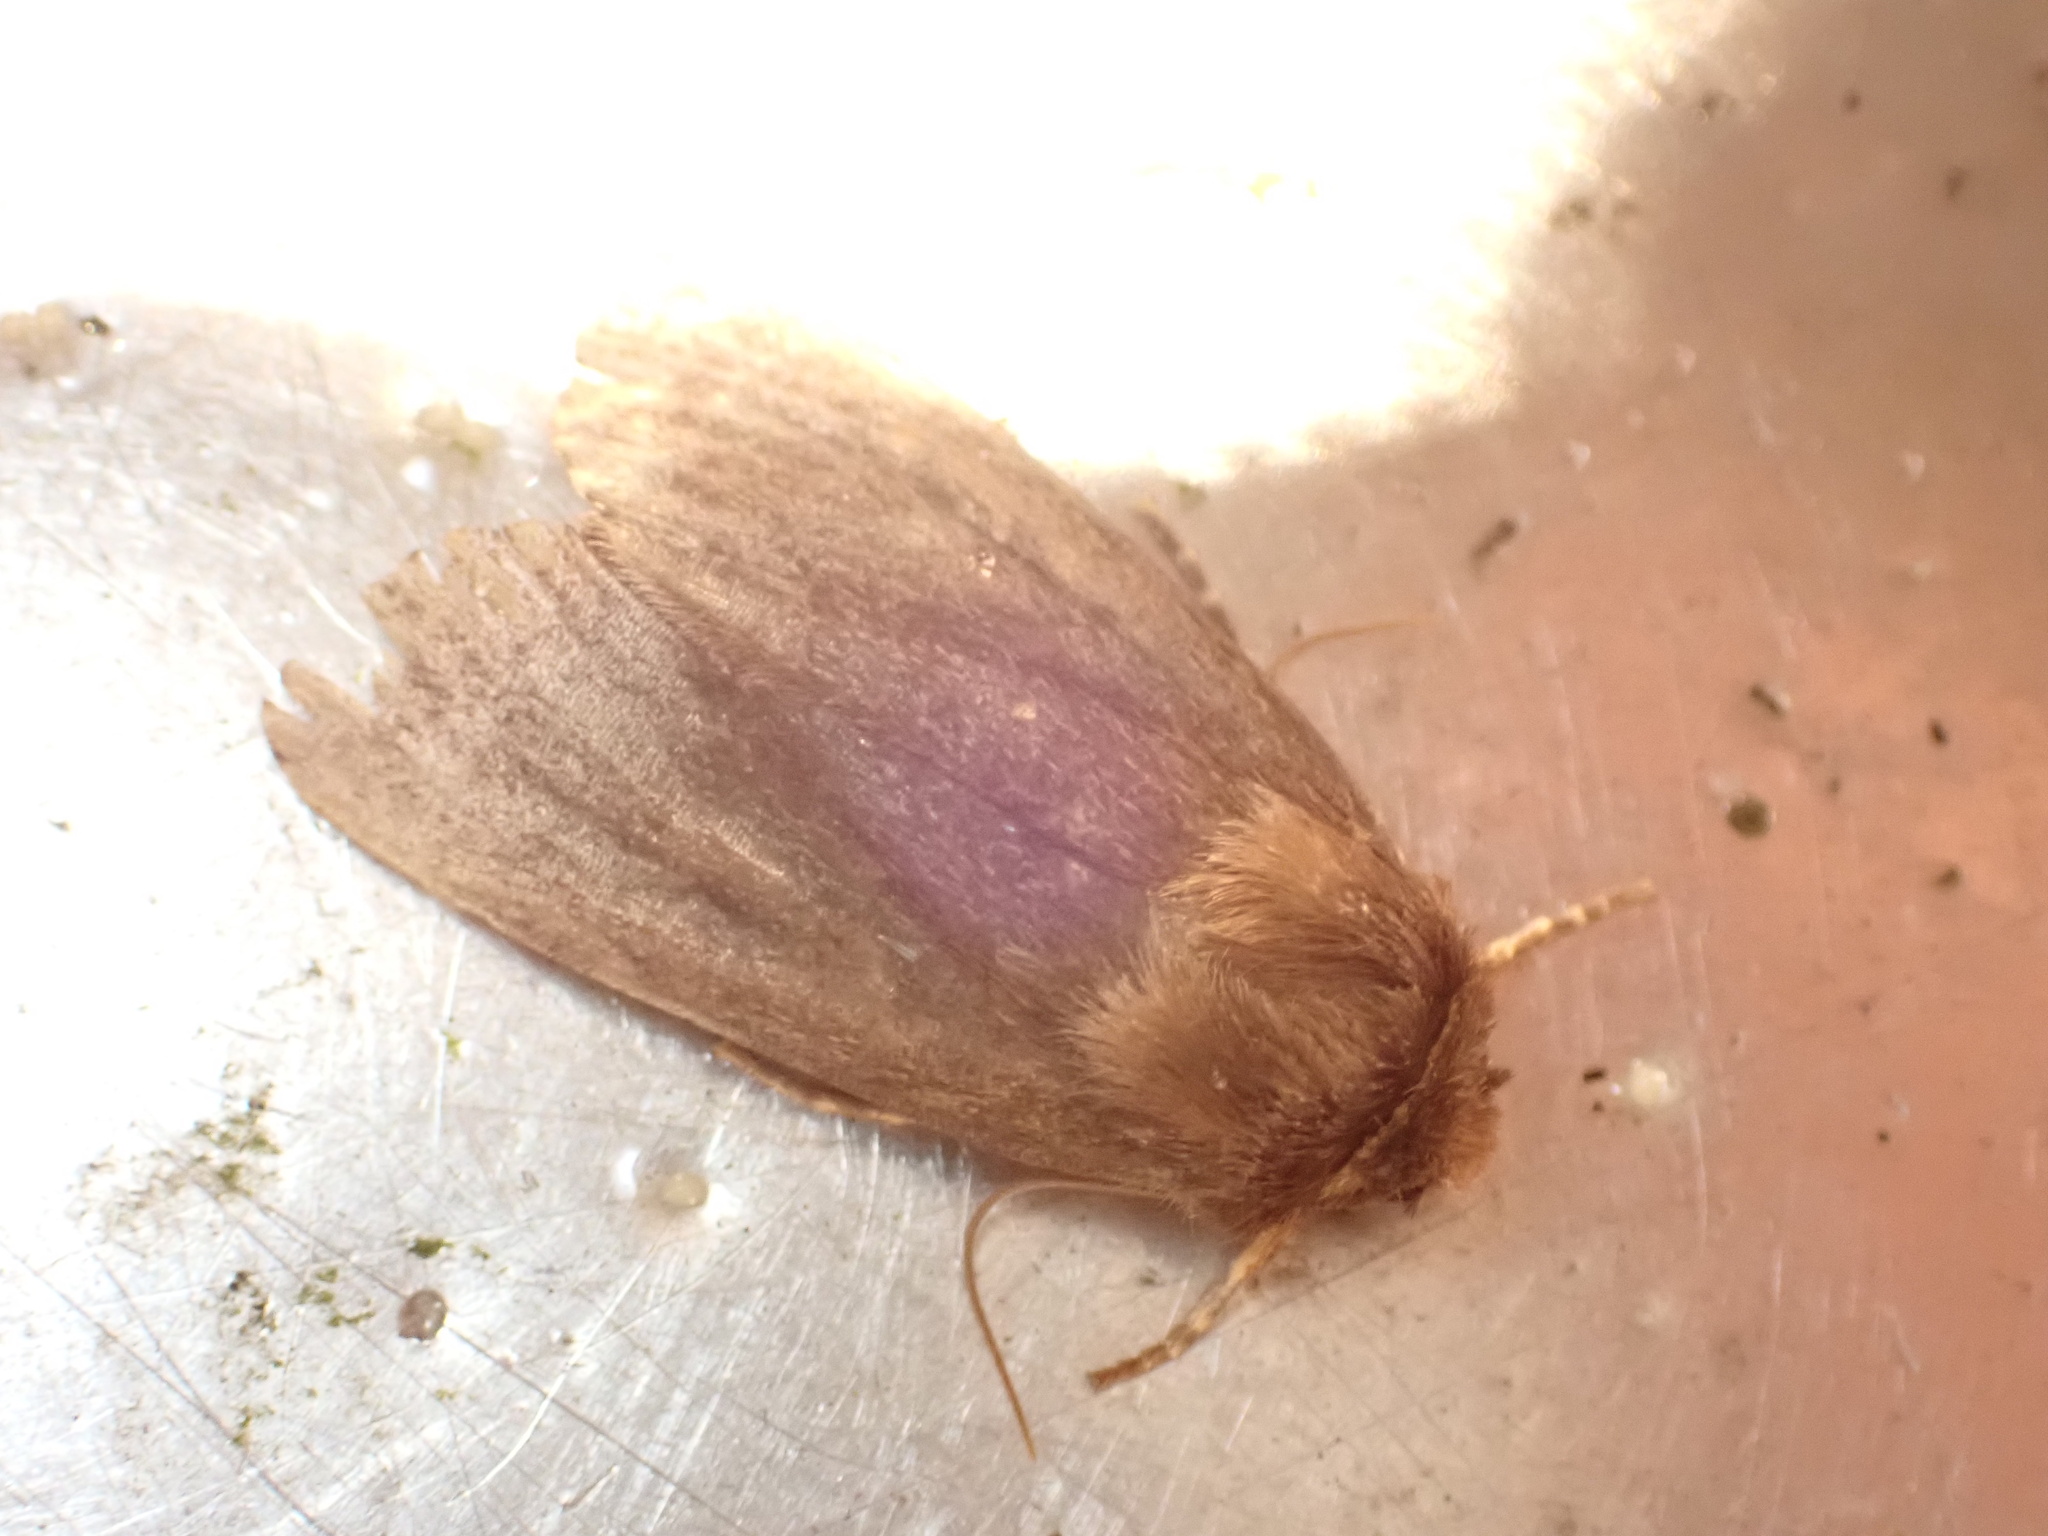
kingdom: Animalia
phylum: Arthropoda
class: Insecta
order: Lepidoptera
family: Noctuidae
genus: Bityla
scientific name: Bityla defigurata
